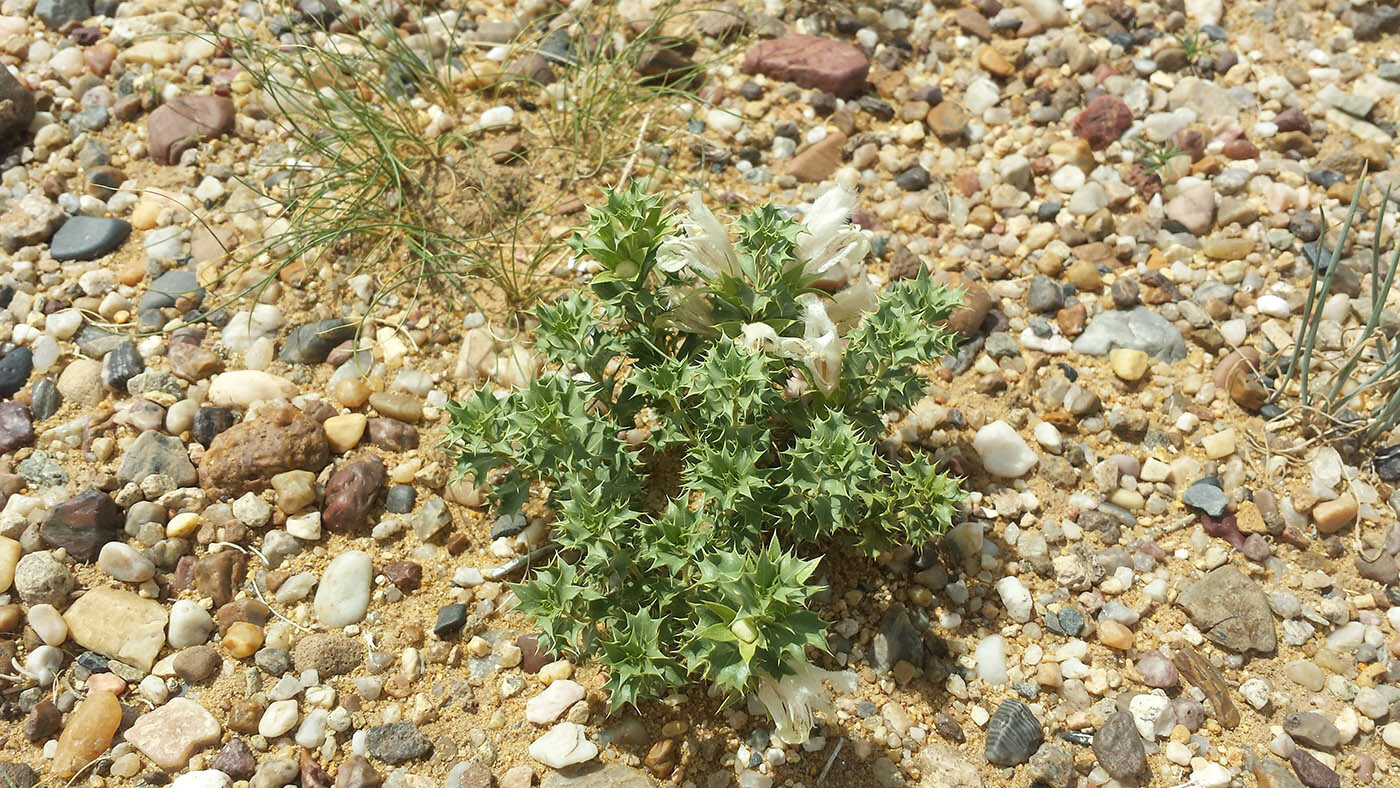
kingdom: Plantae
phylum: Tracheophyta
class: Magnoliopsida
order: Lamiales
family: Lamiaceae
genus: Lagochilus
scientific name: Lagochilus ilicifolius
